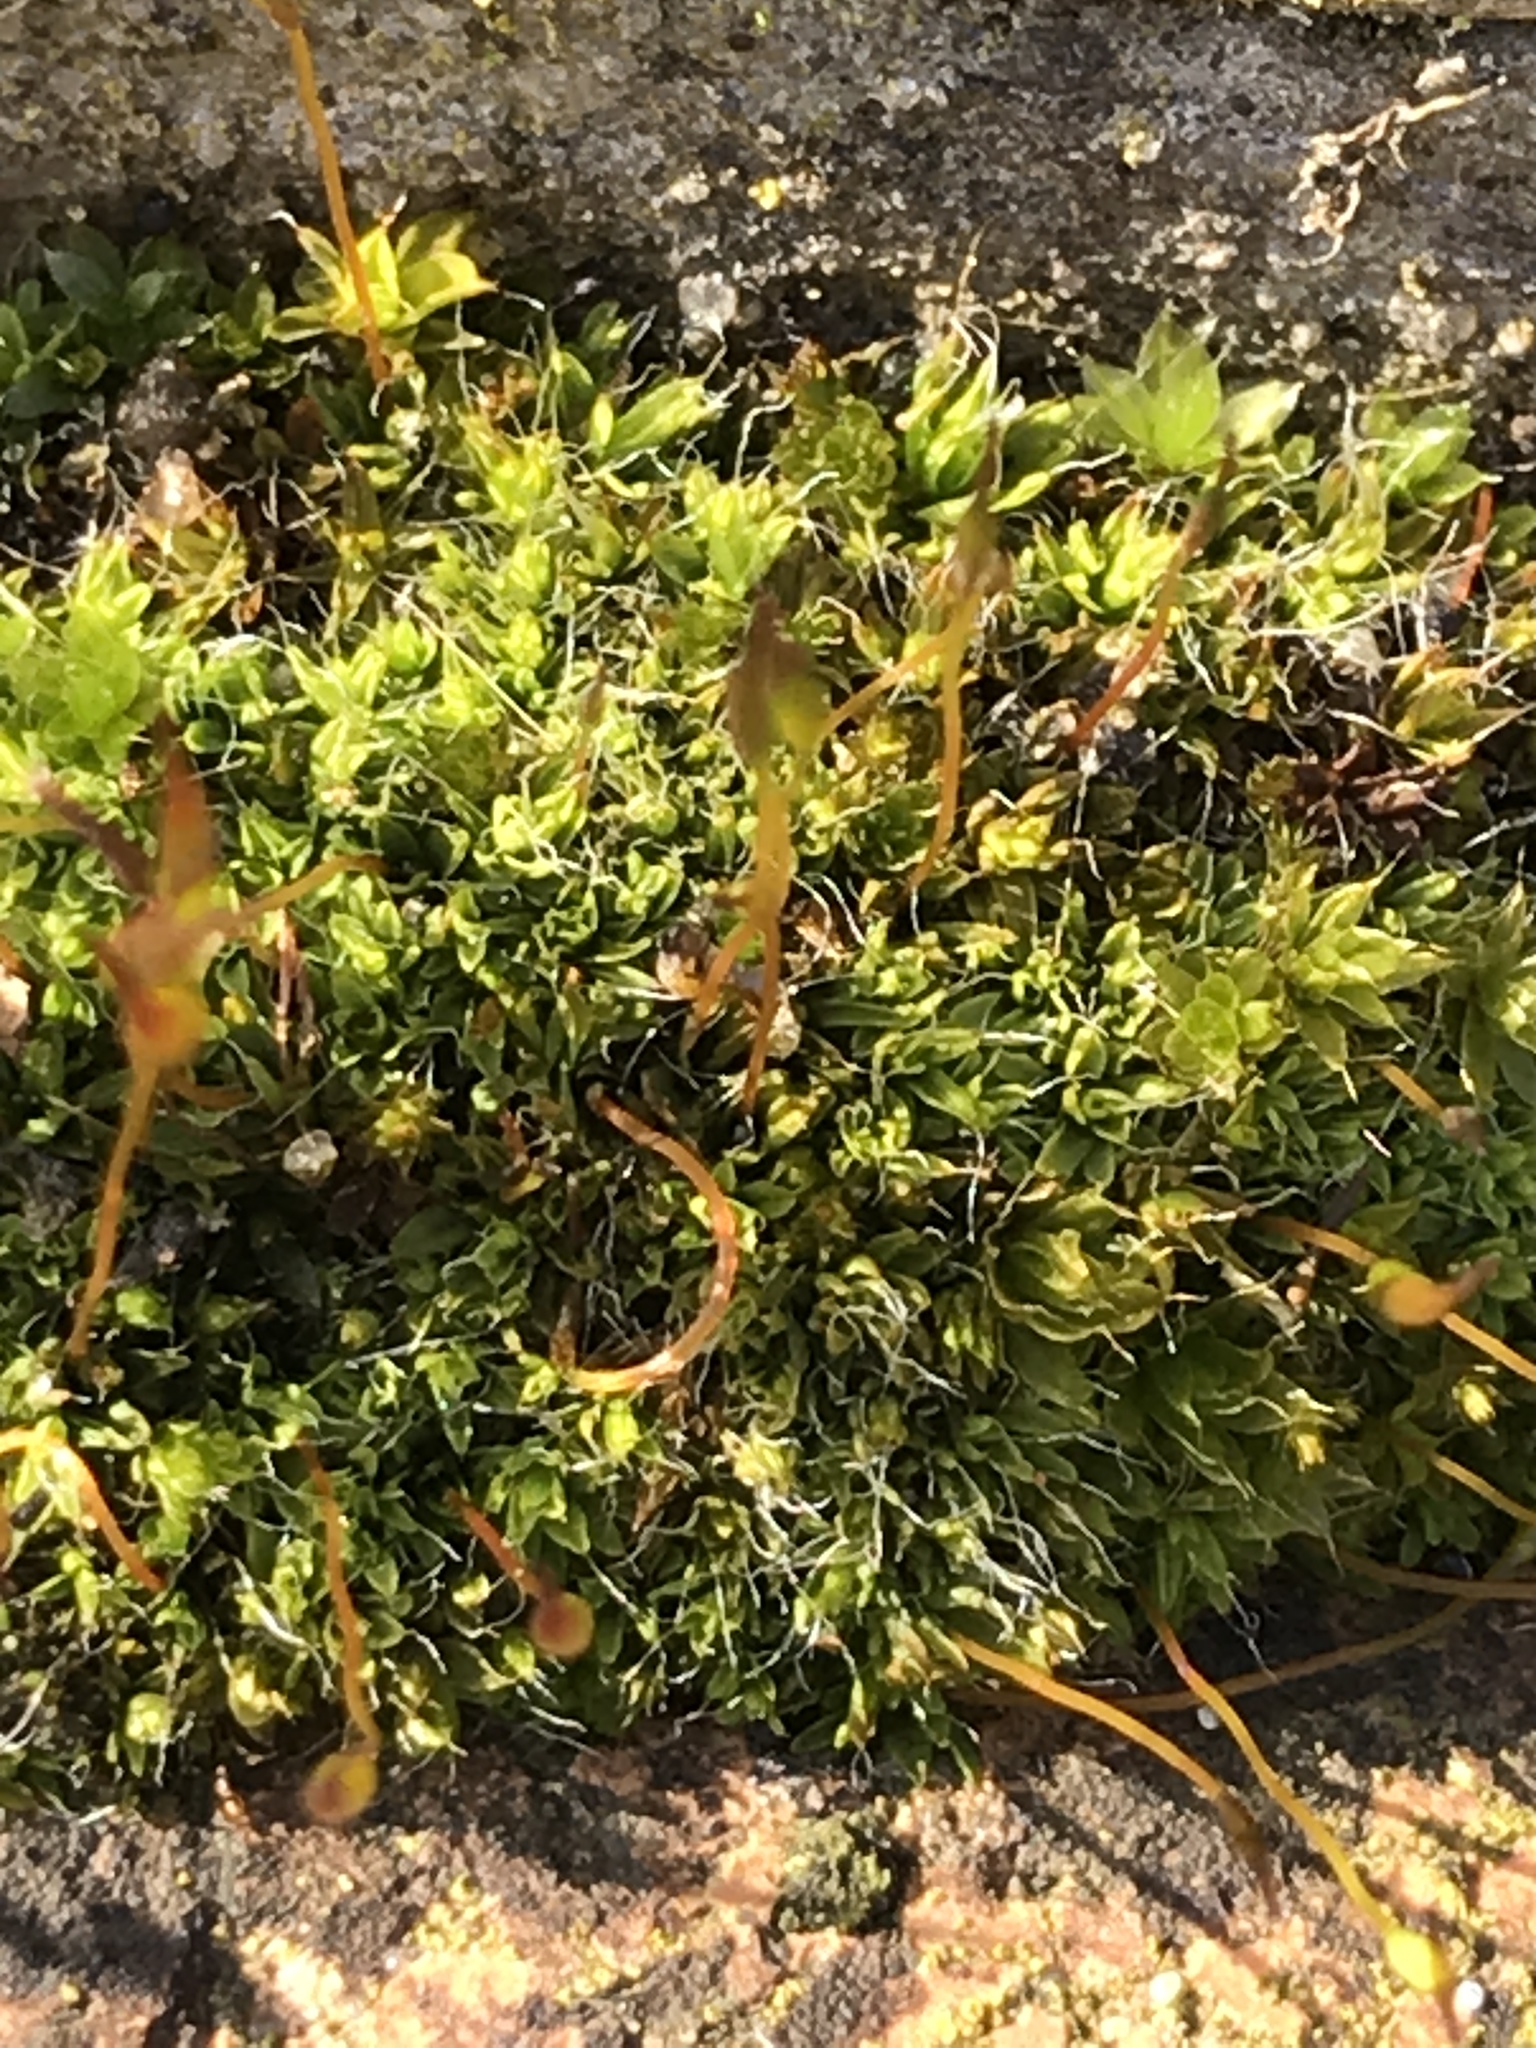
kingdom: Plantae
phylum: Bryophyta
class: Bryopsida
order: Pottiales
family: Pottiaceae
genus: Tortula
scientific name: Tortula muralis
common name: Wall screw-moss
